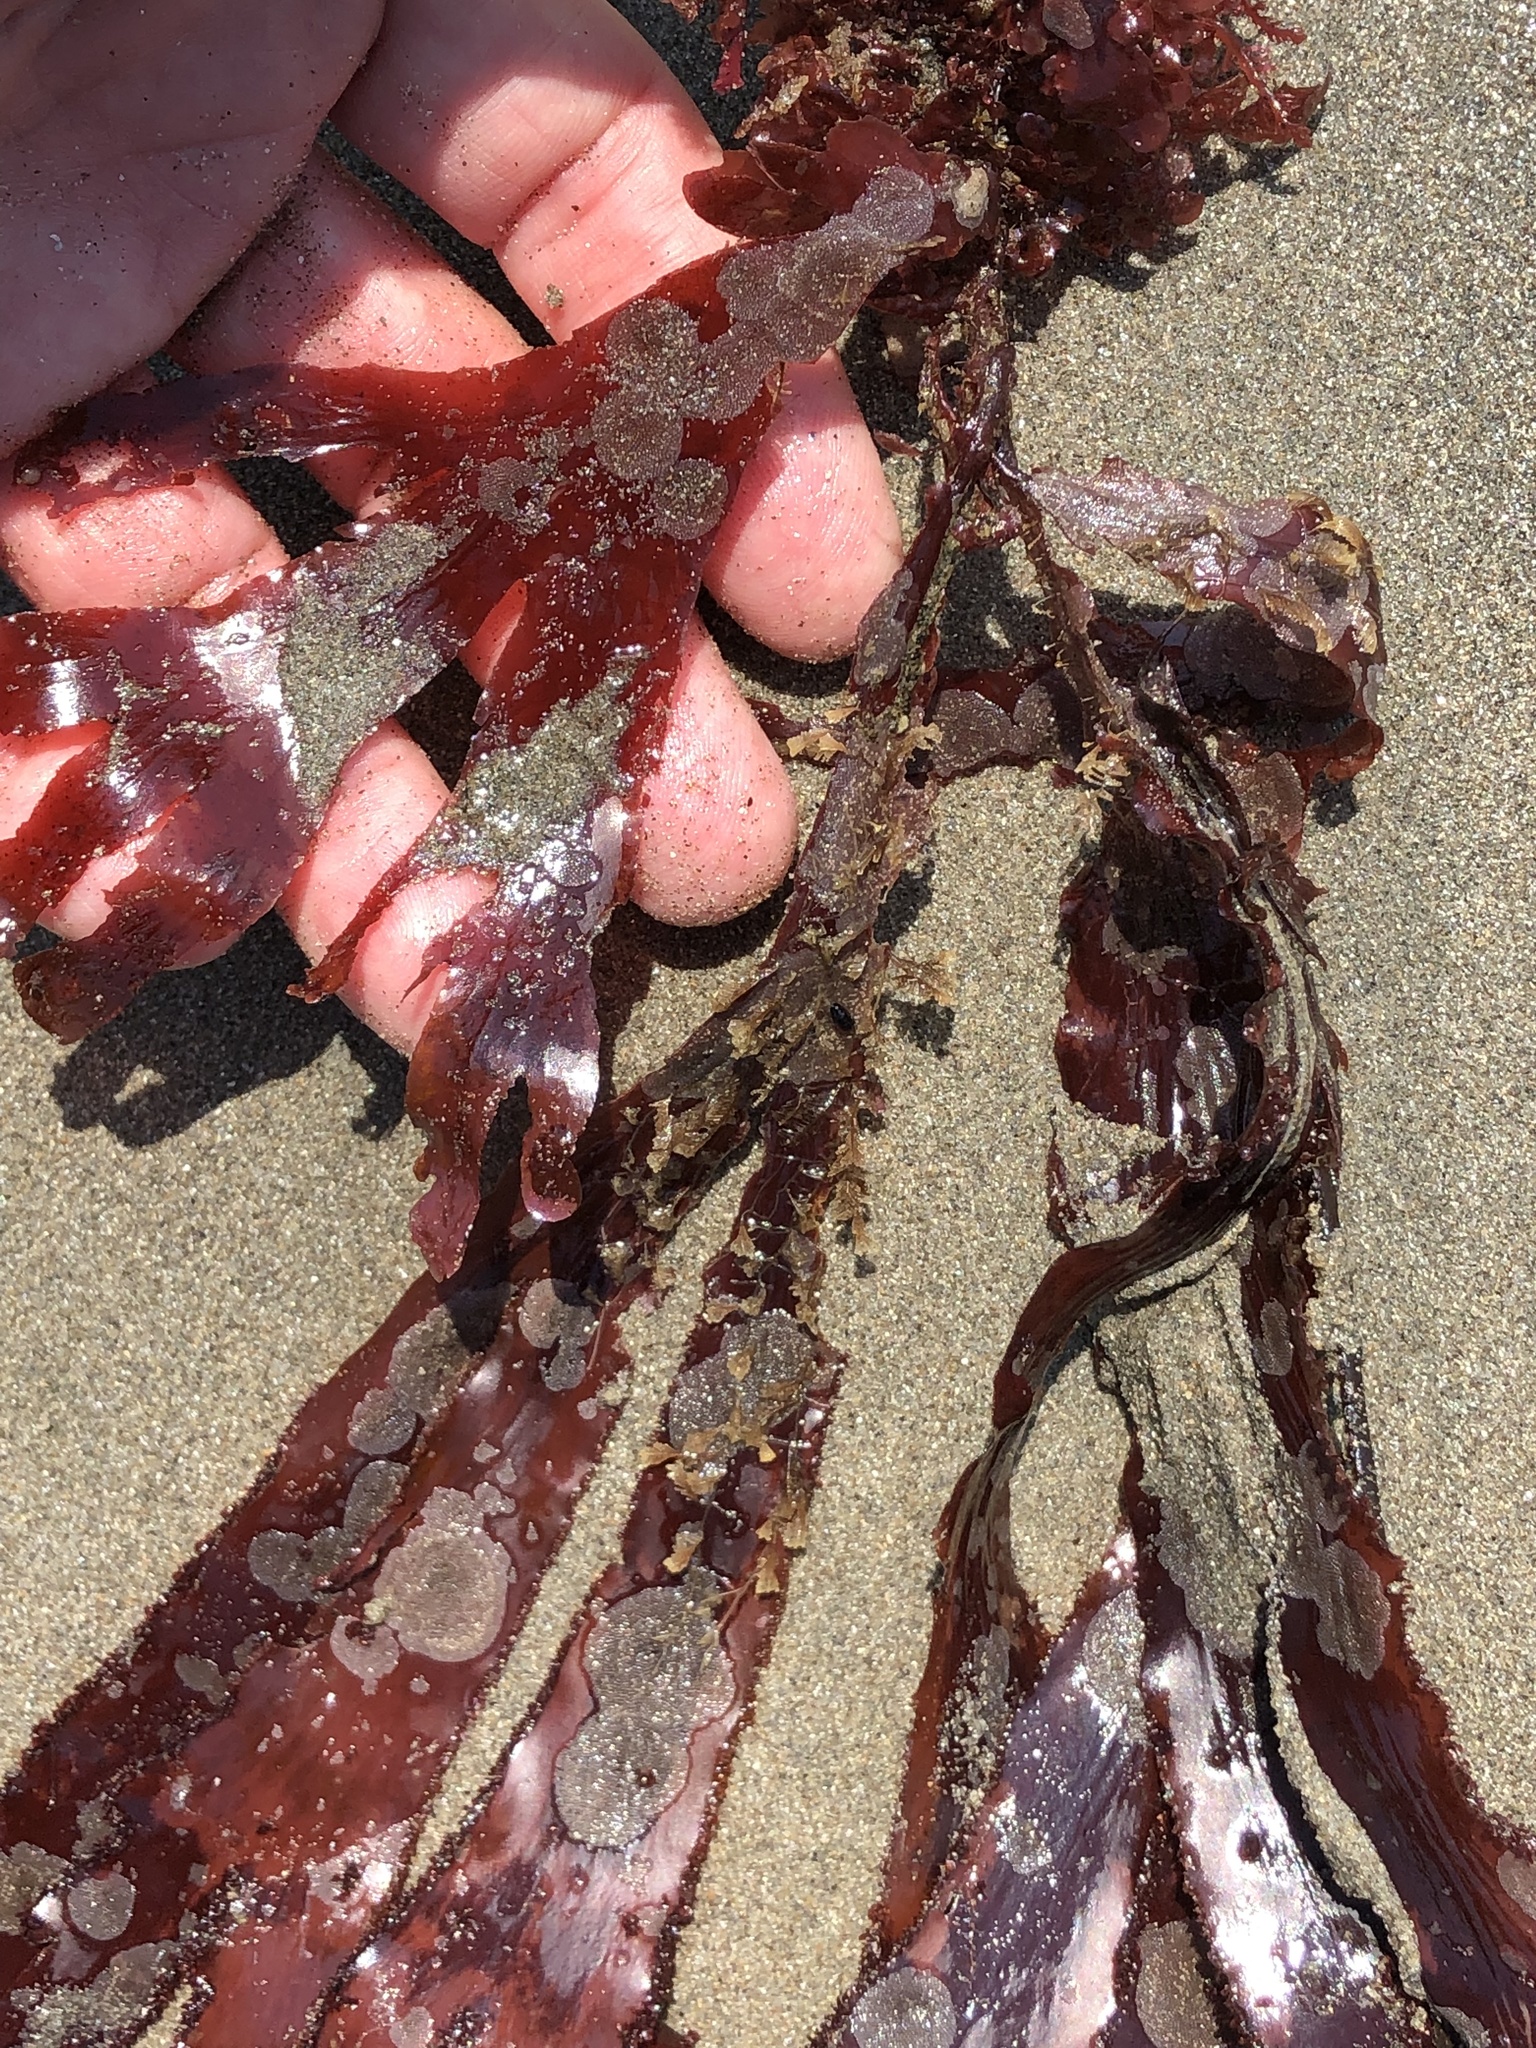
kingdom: Plantae
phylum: Rhodophyta
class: Florideophyceae
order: Ceramiales
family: Delesseriaceae
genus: Cryptopleura
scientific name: Cryptopleura ruprechtiana
